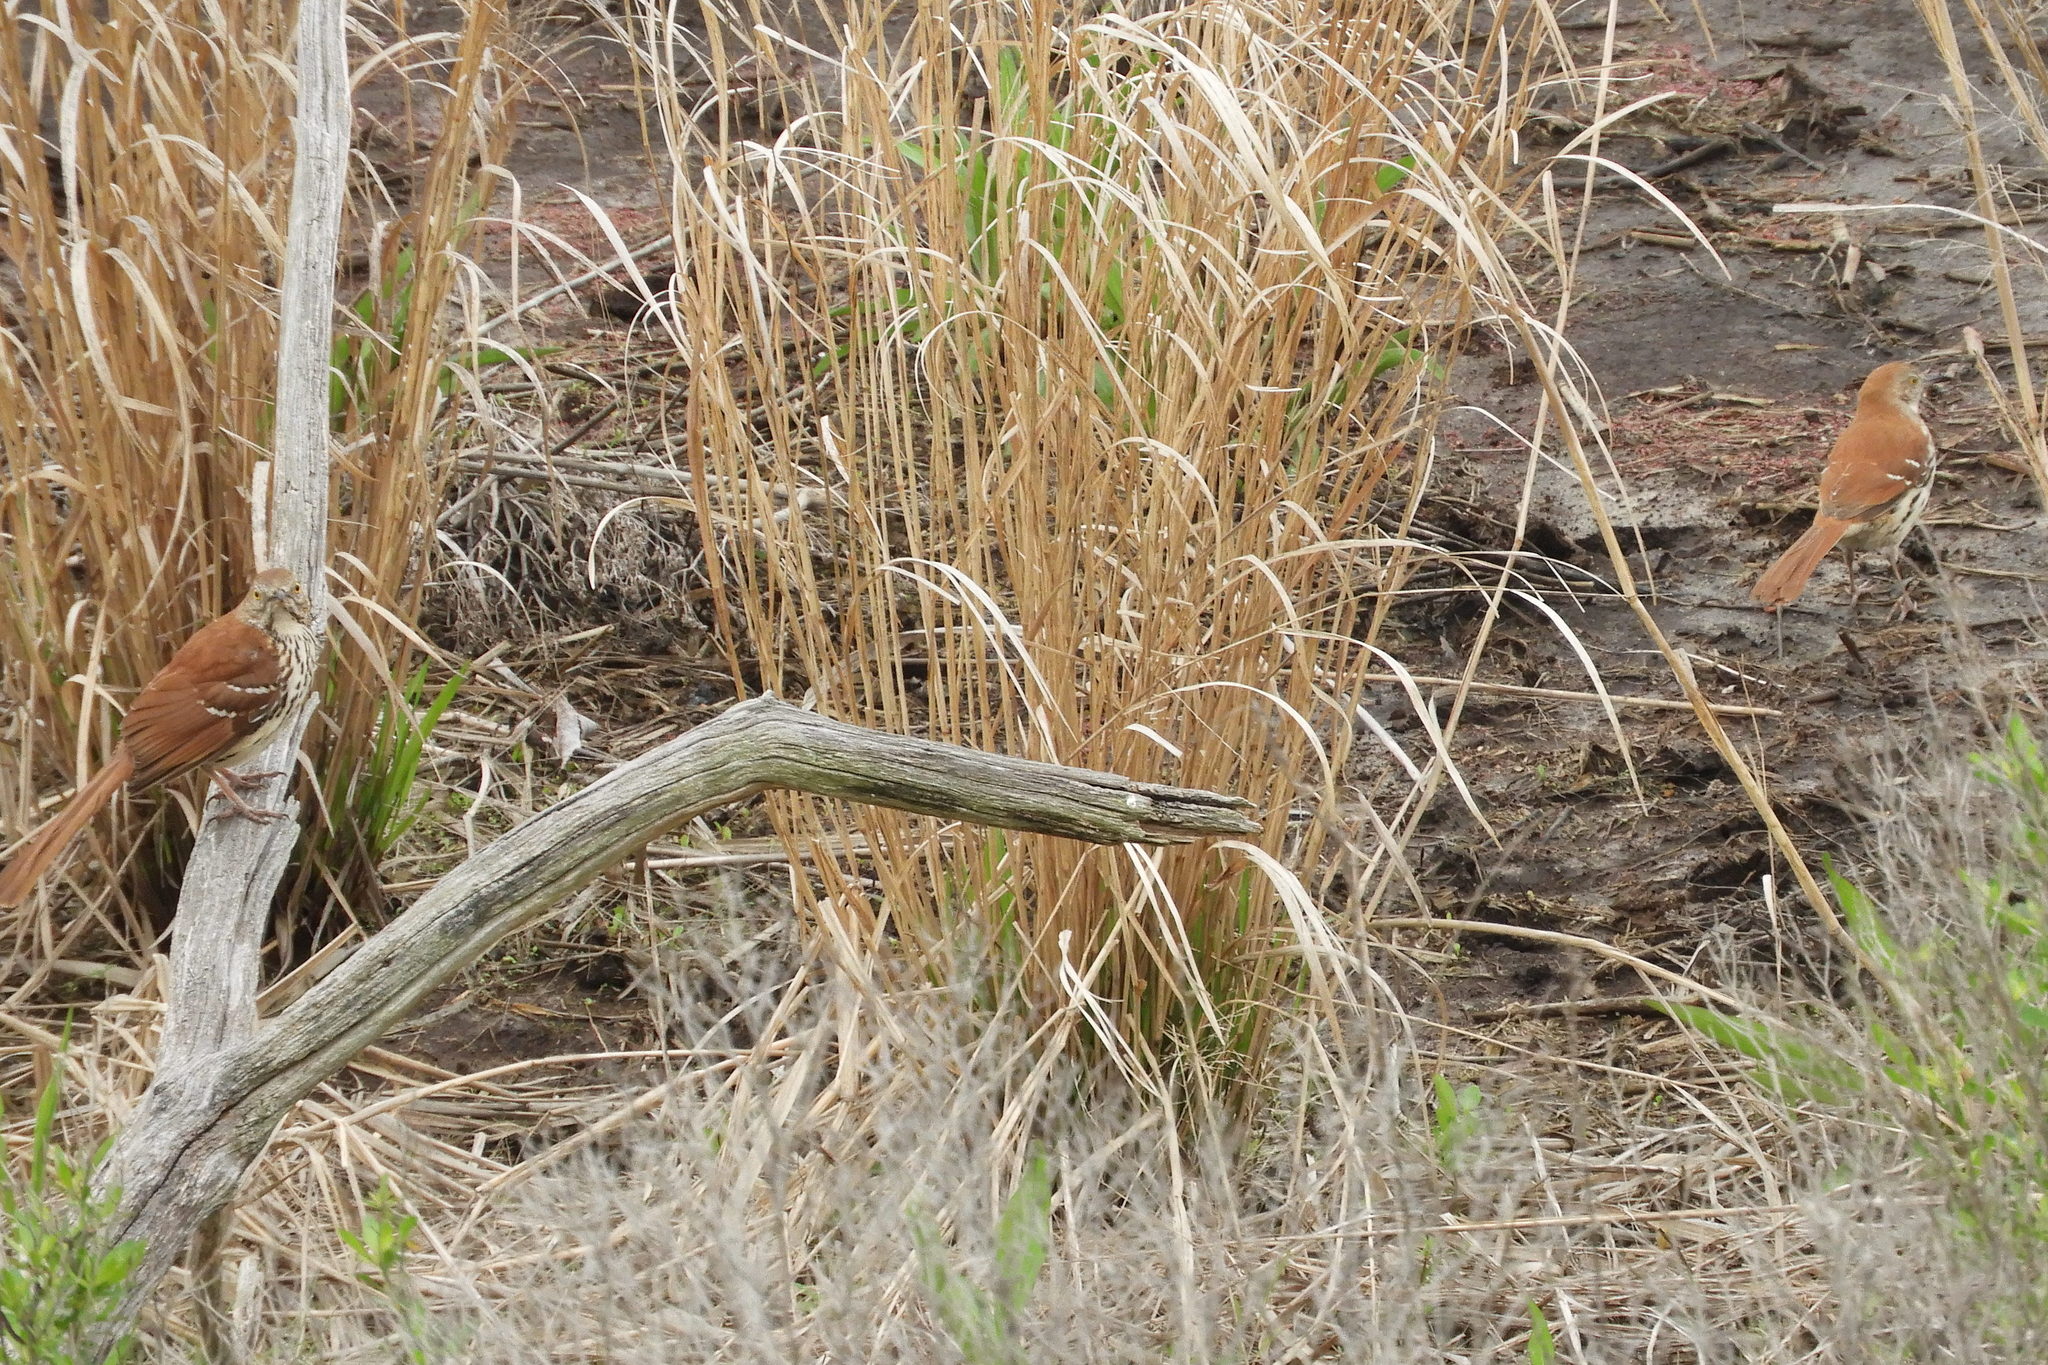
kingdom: Animalia
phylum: Chordata
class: Aves
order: Passeriformes
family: Mimidae
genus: Toxostoma
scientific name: Toxostoma rufum
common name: Brown thrasher
